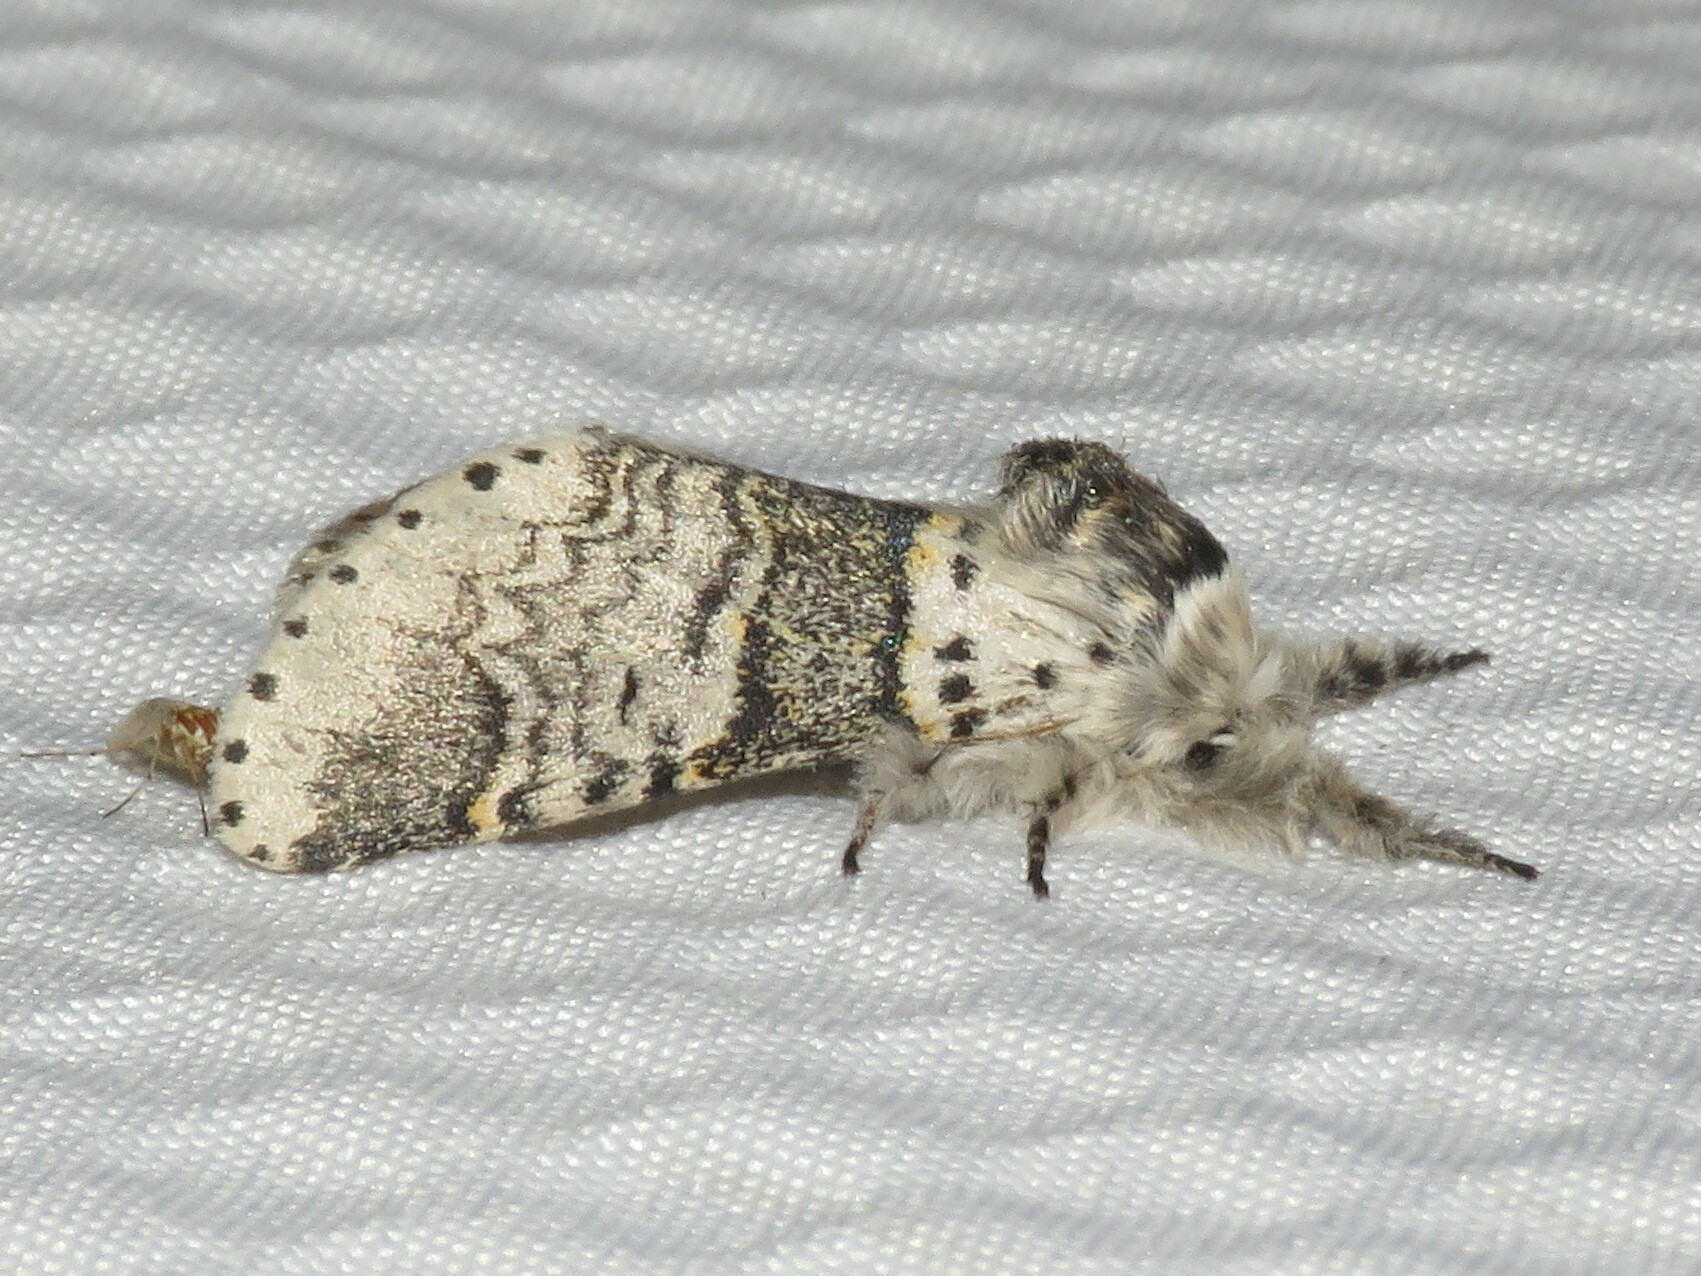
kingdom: Animalia
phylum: Arthropoda
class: Insecta
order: Lepidoptera
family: Notodontidae
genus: Furcula
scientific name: Furcula occidentalis
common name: Western furcula moth
